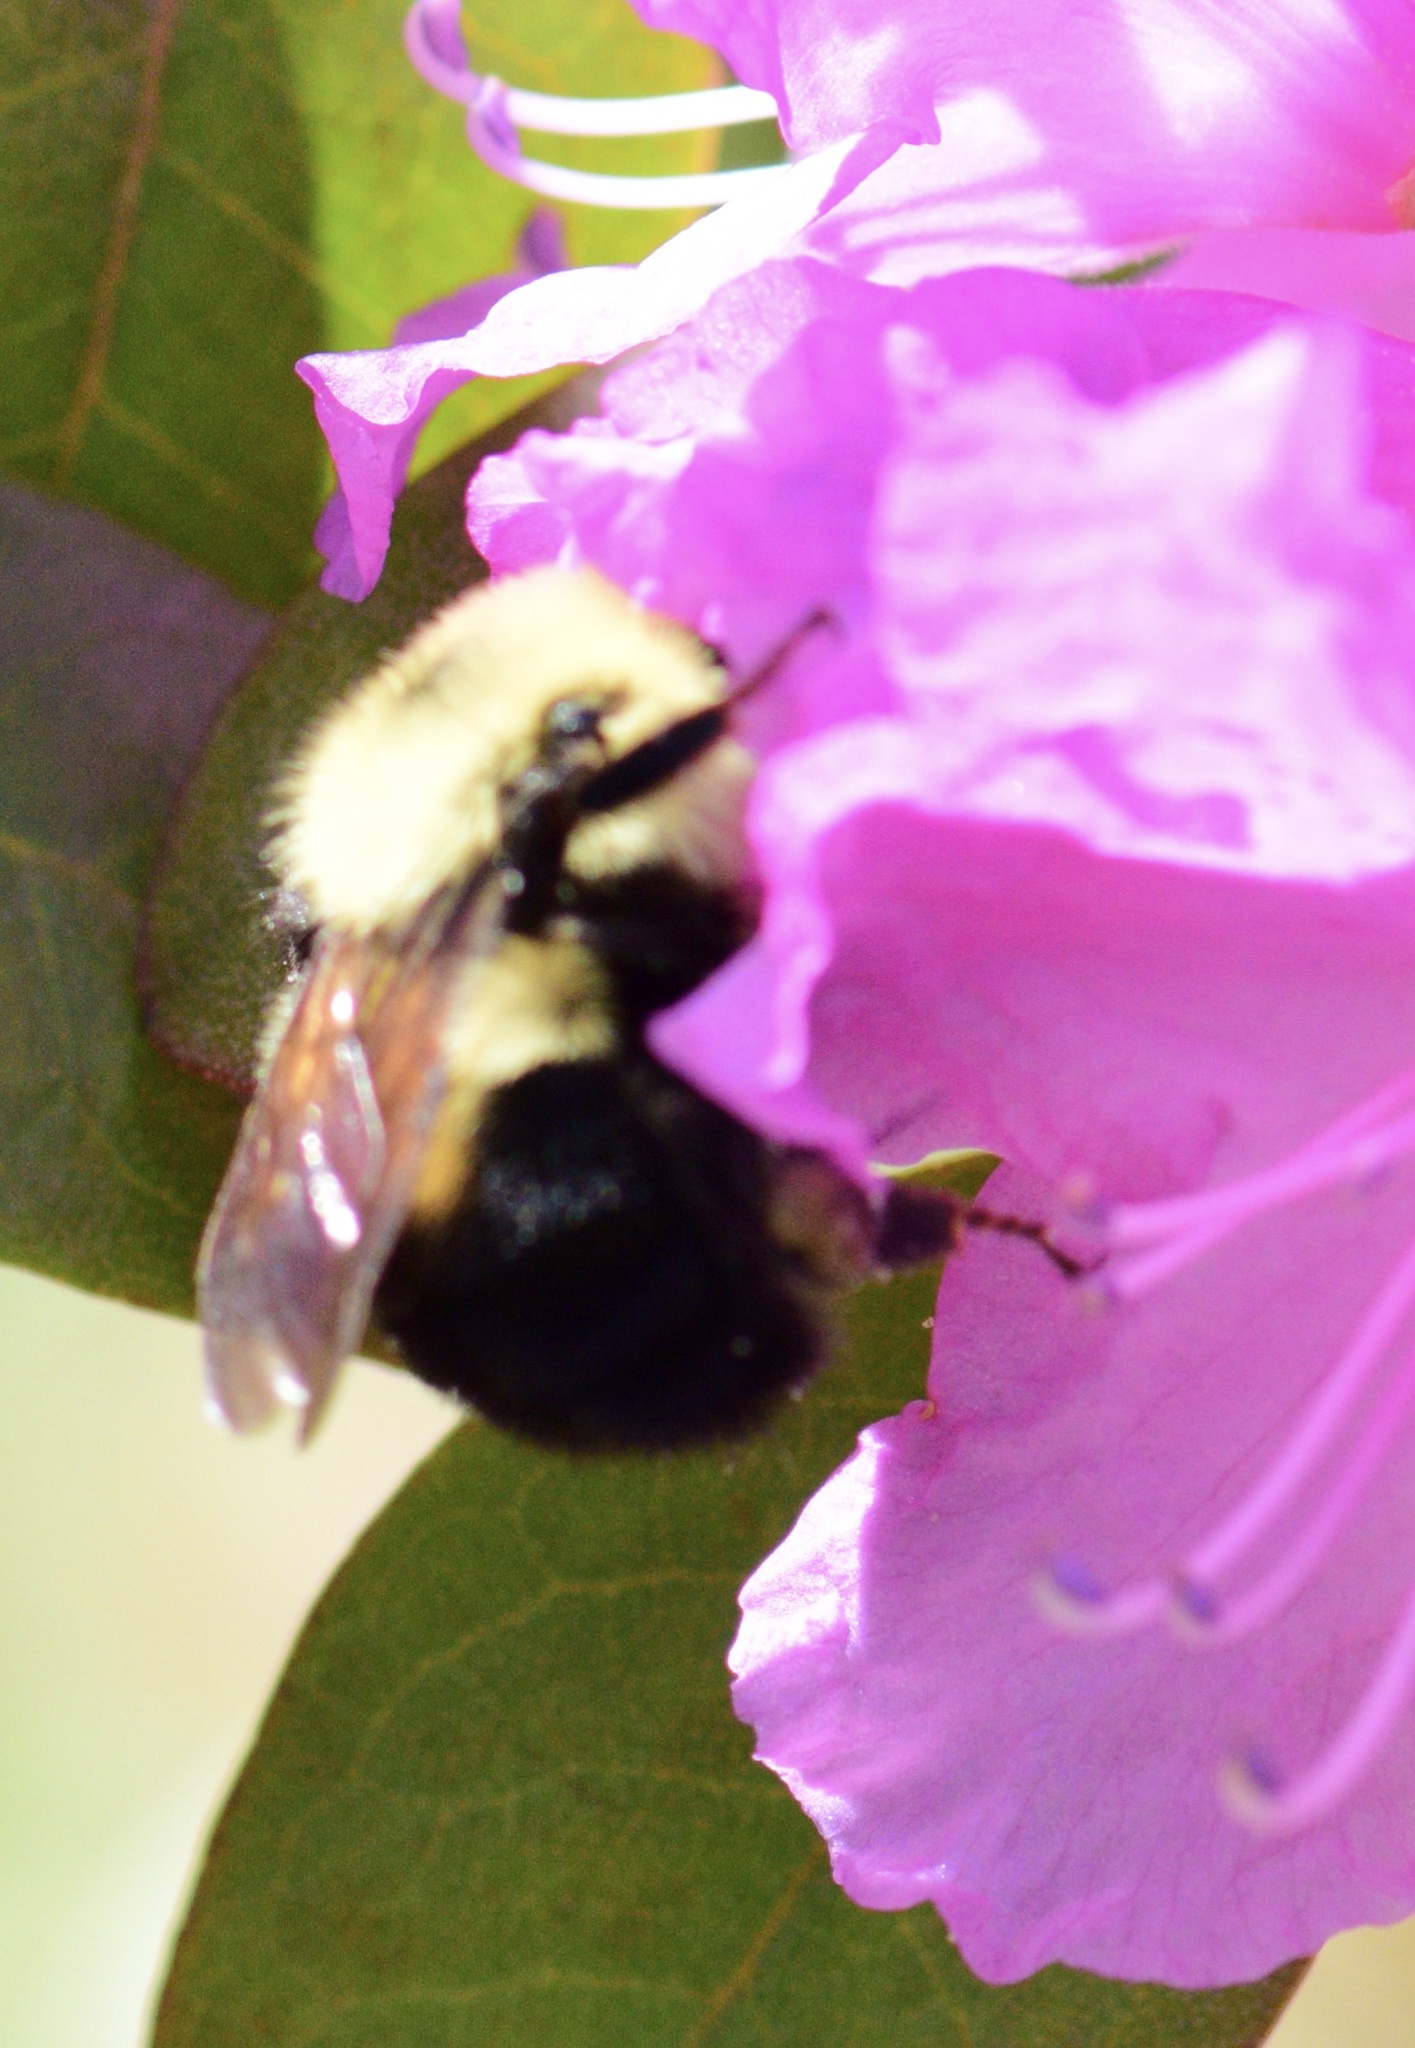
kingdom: Animalia
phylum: Arthropoda
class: Insecta
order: Hymenoptera
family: Apidae
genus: Bombus
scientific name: Bombus bimaculatus
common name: Two-spotted bumble bee
